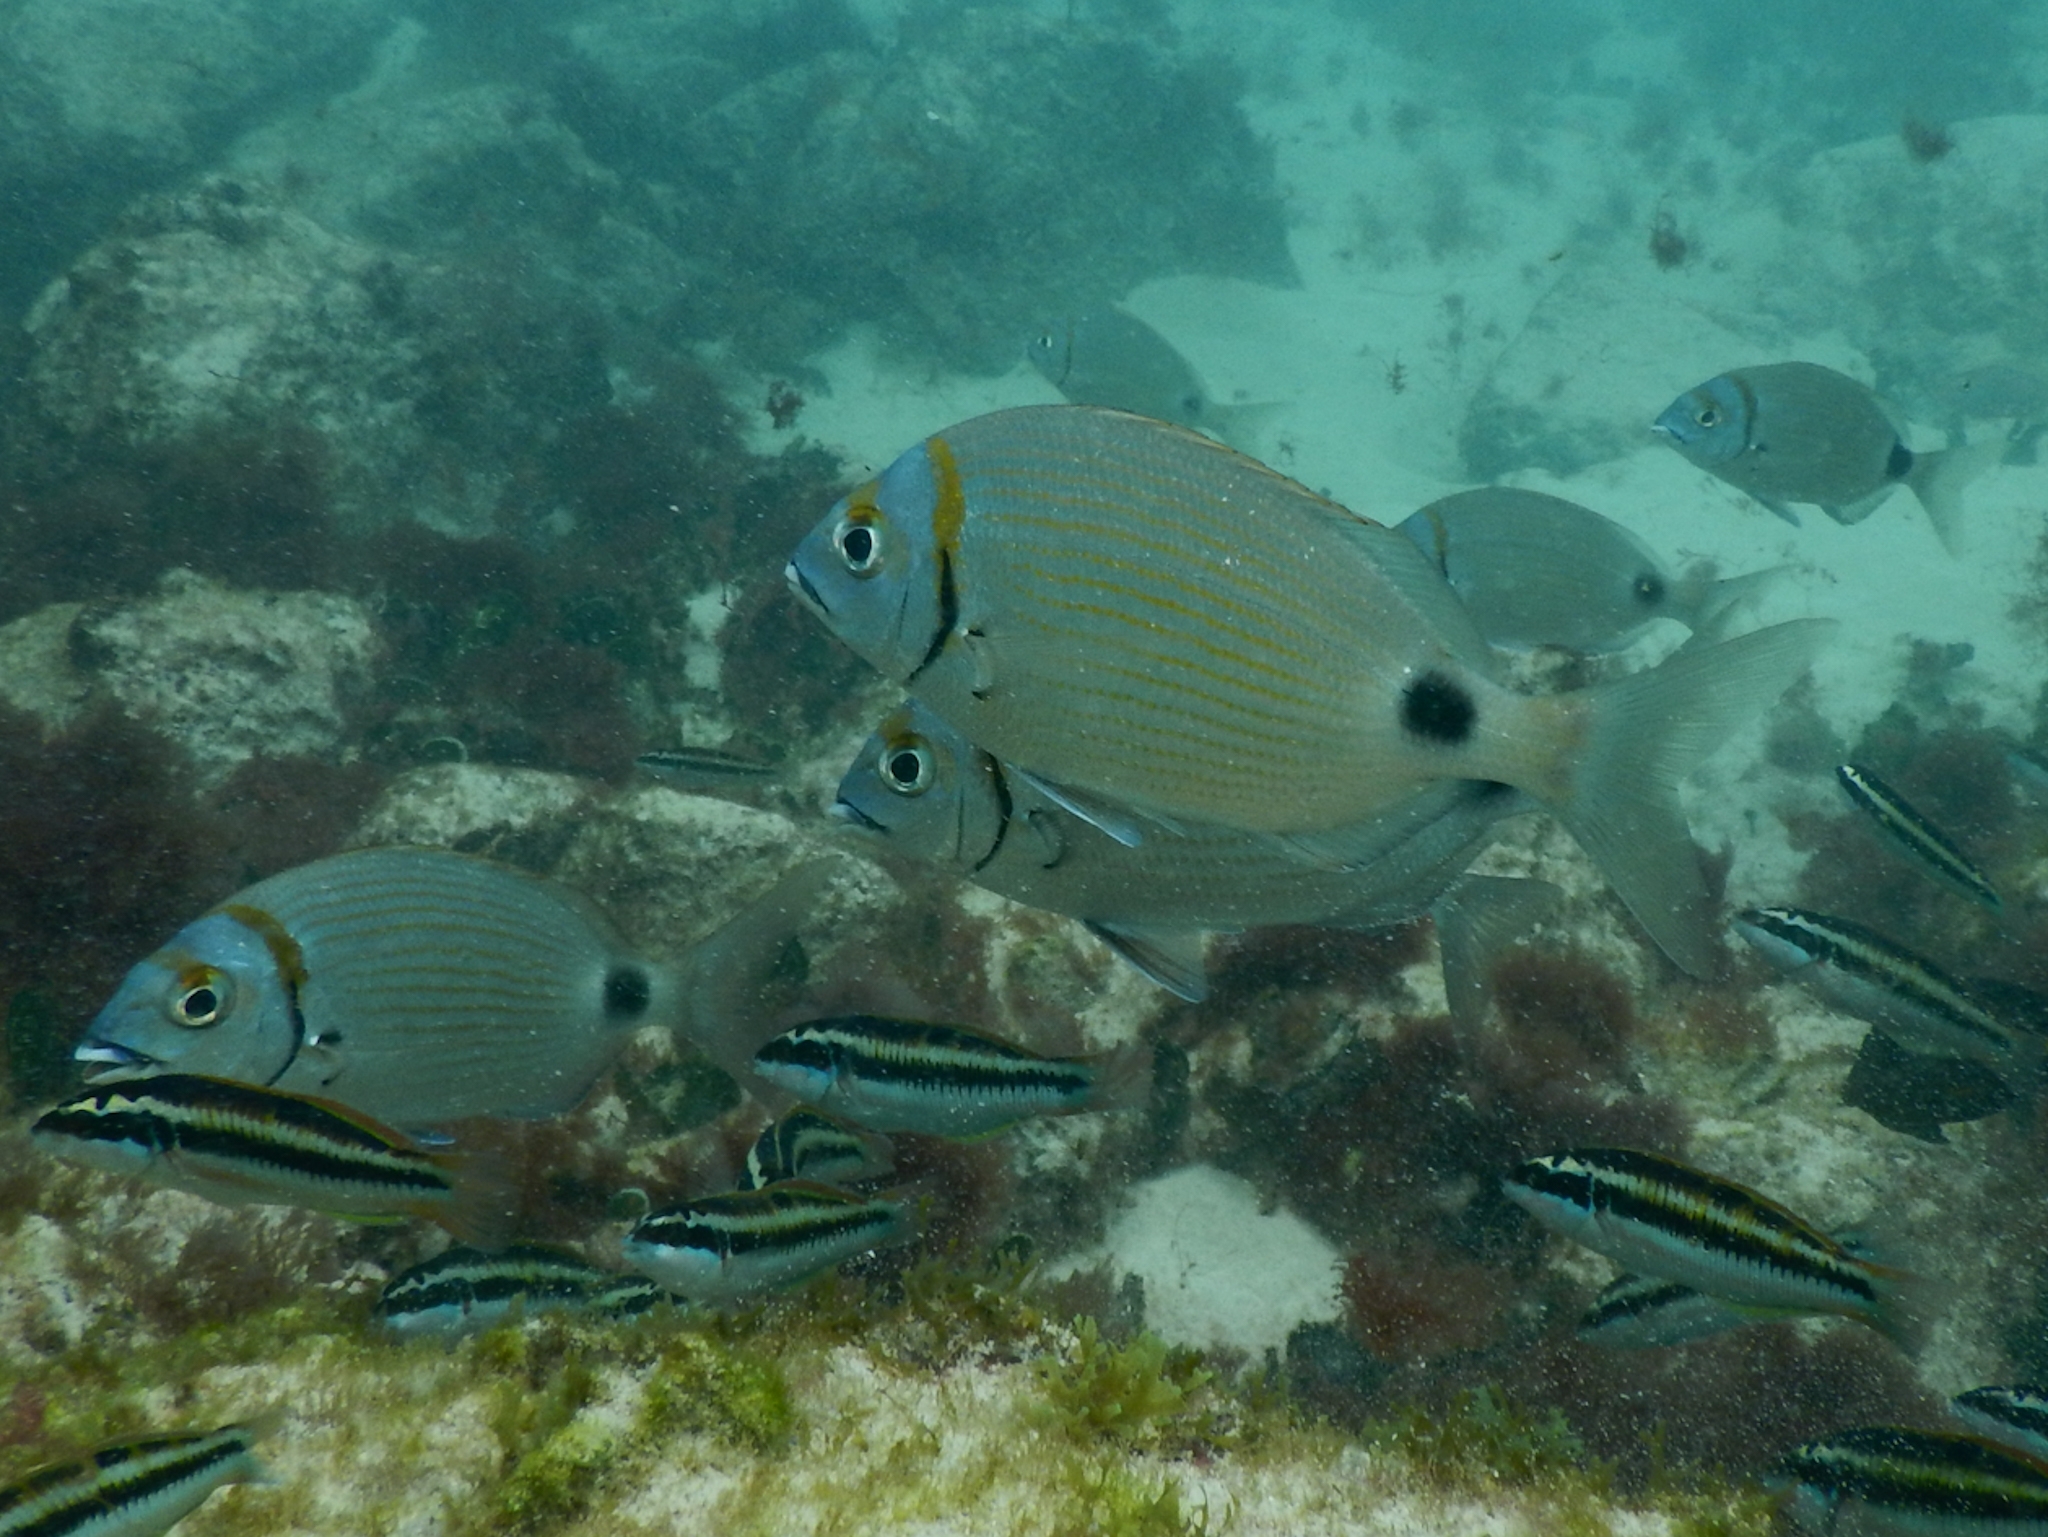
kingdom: Animalia
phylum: Chordata
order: Perciformes
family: Sparidae
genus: Diplodus
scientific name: Diplodus prayensis
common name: Two-banded seabream
